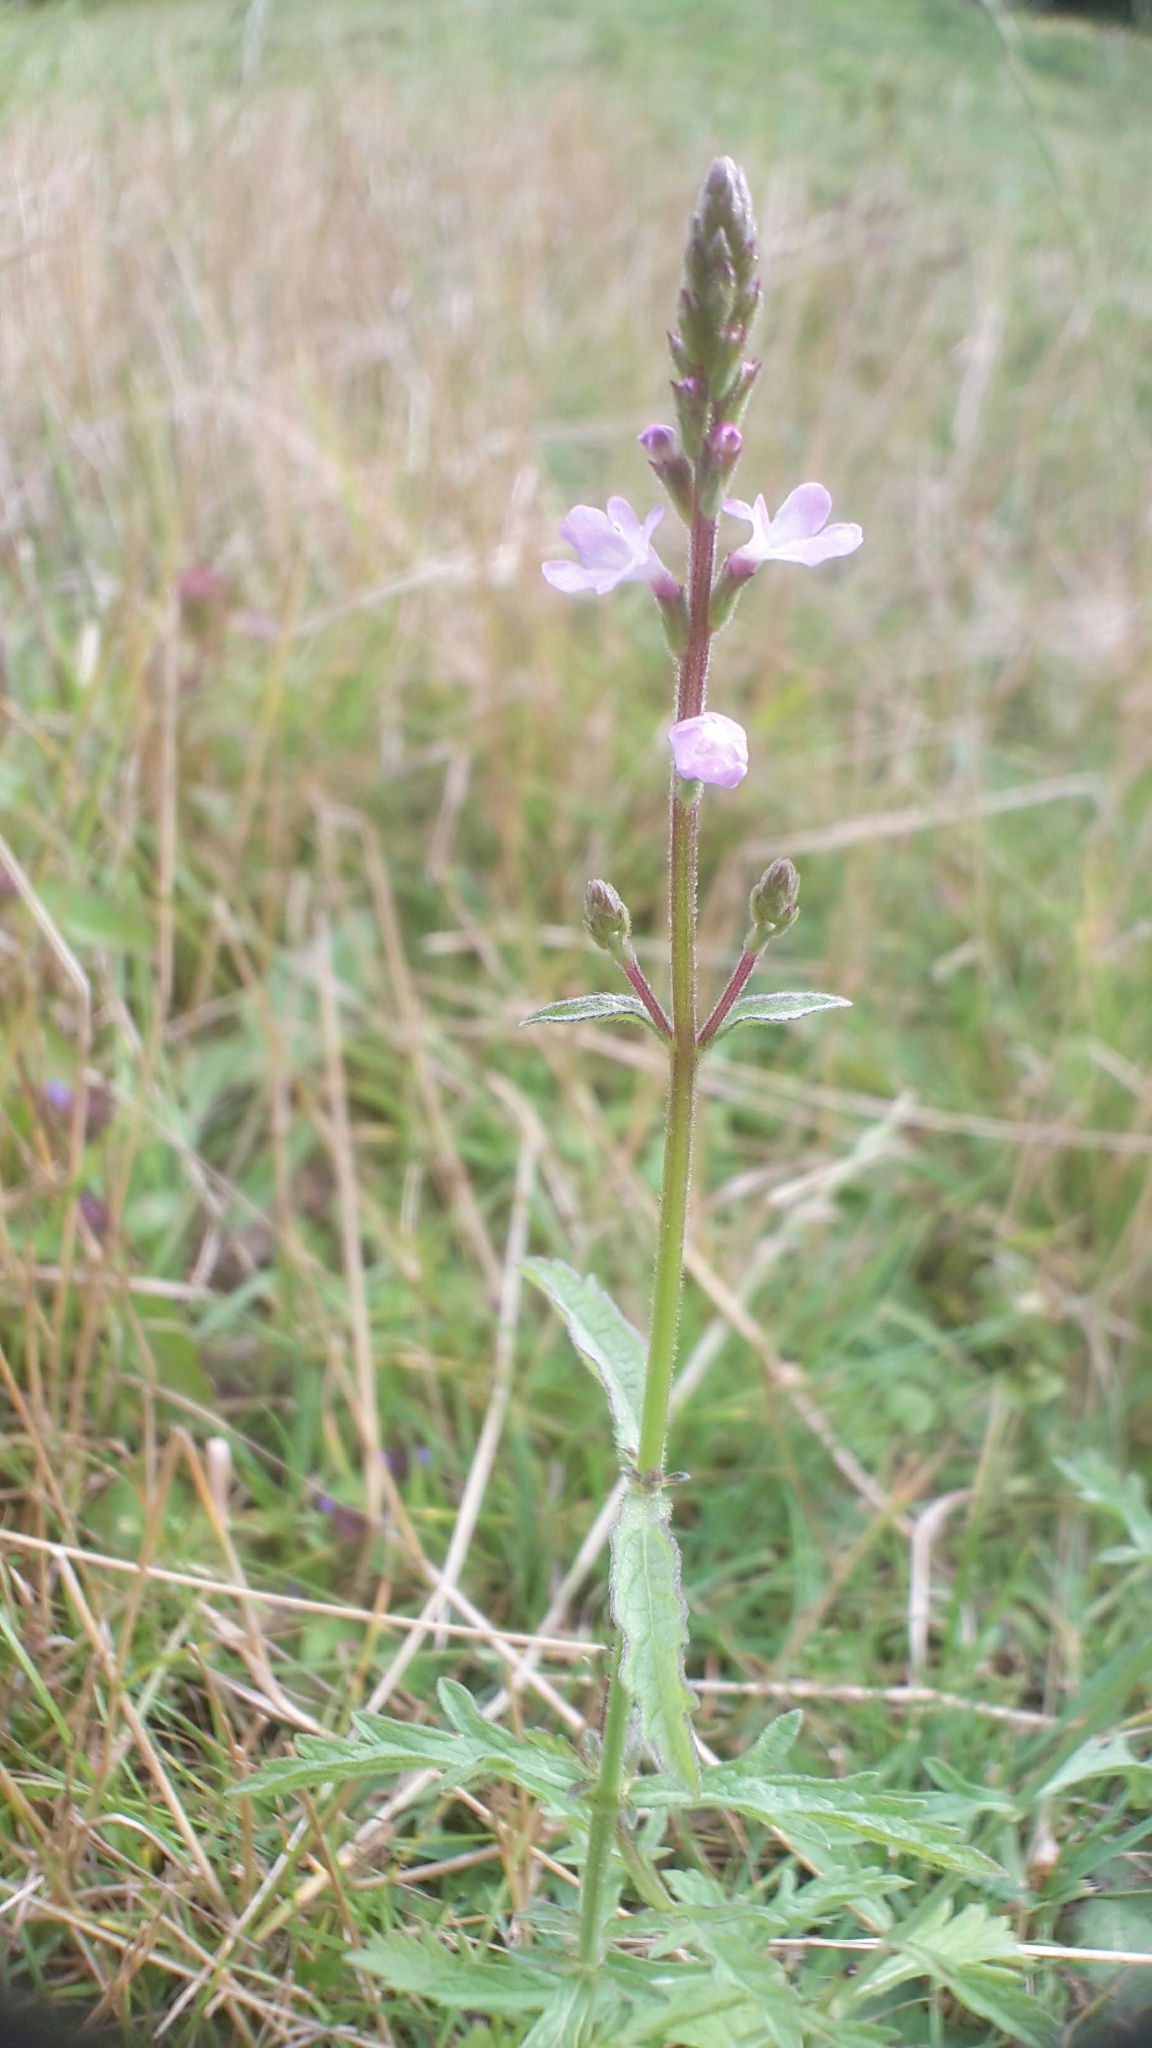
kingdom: Plantae
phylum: Tracheophyta
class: Magnoliopsida
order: Lamiales
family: Verbenaceae
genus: Verbena
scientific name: Verbena officinalis
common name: Vervain
